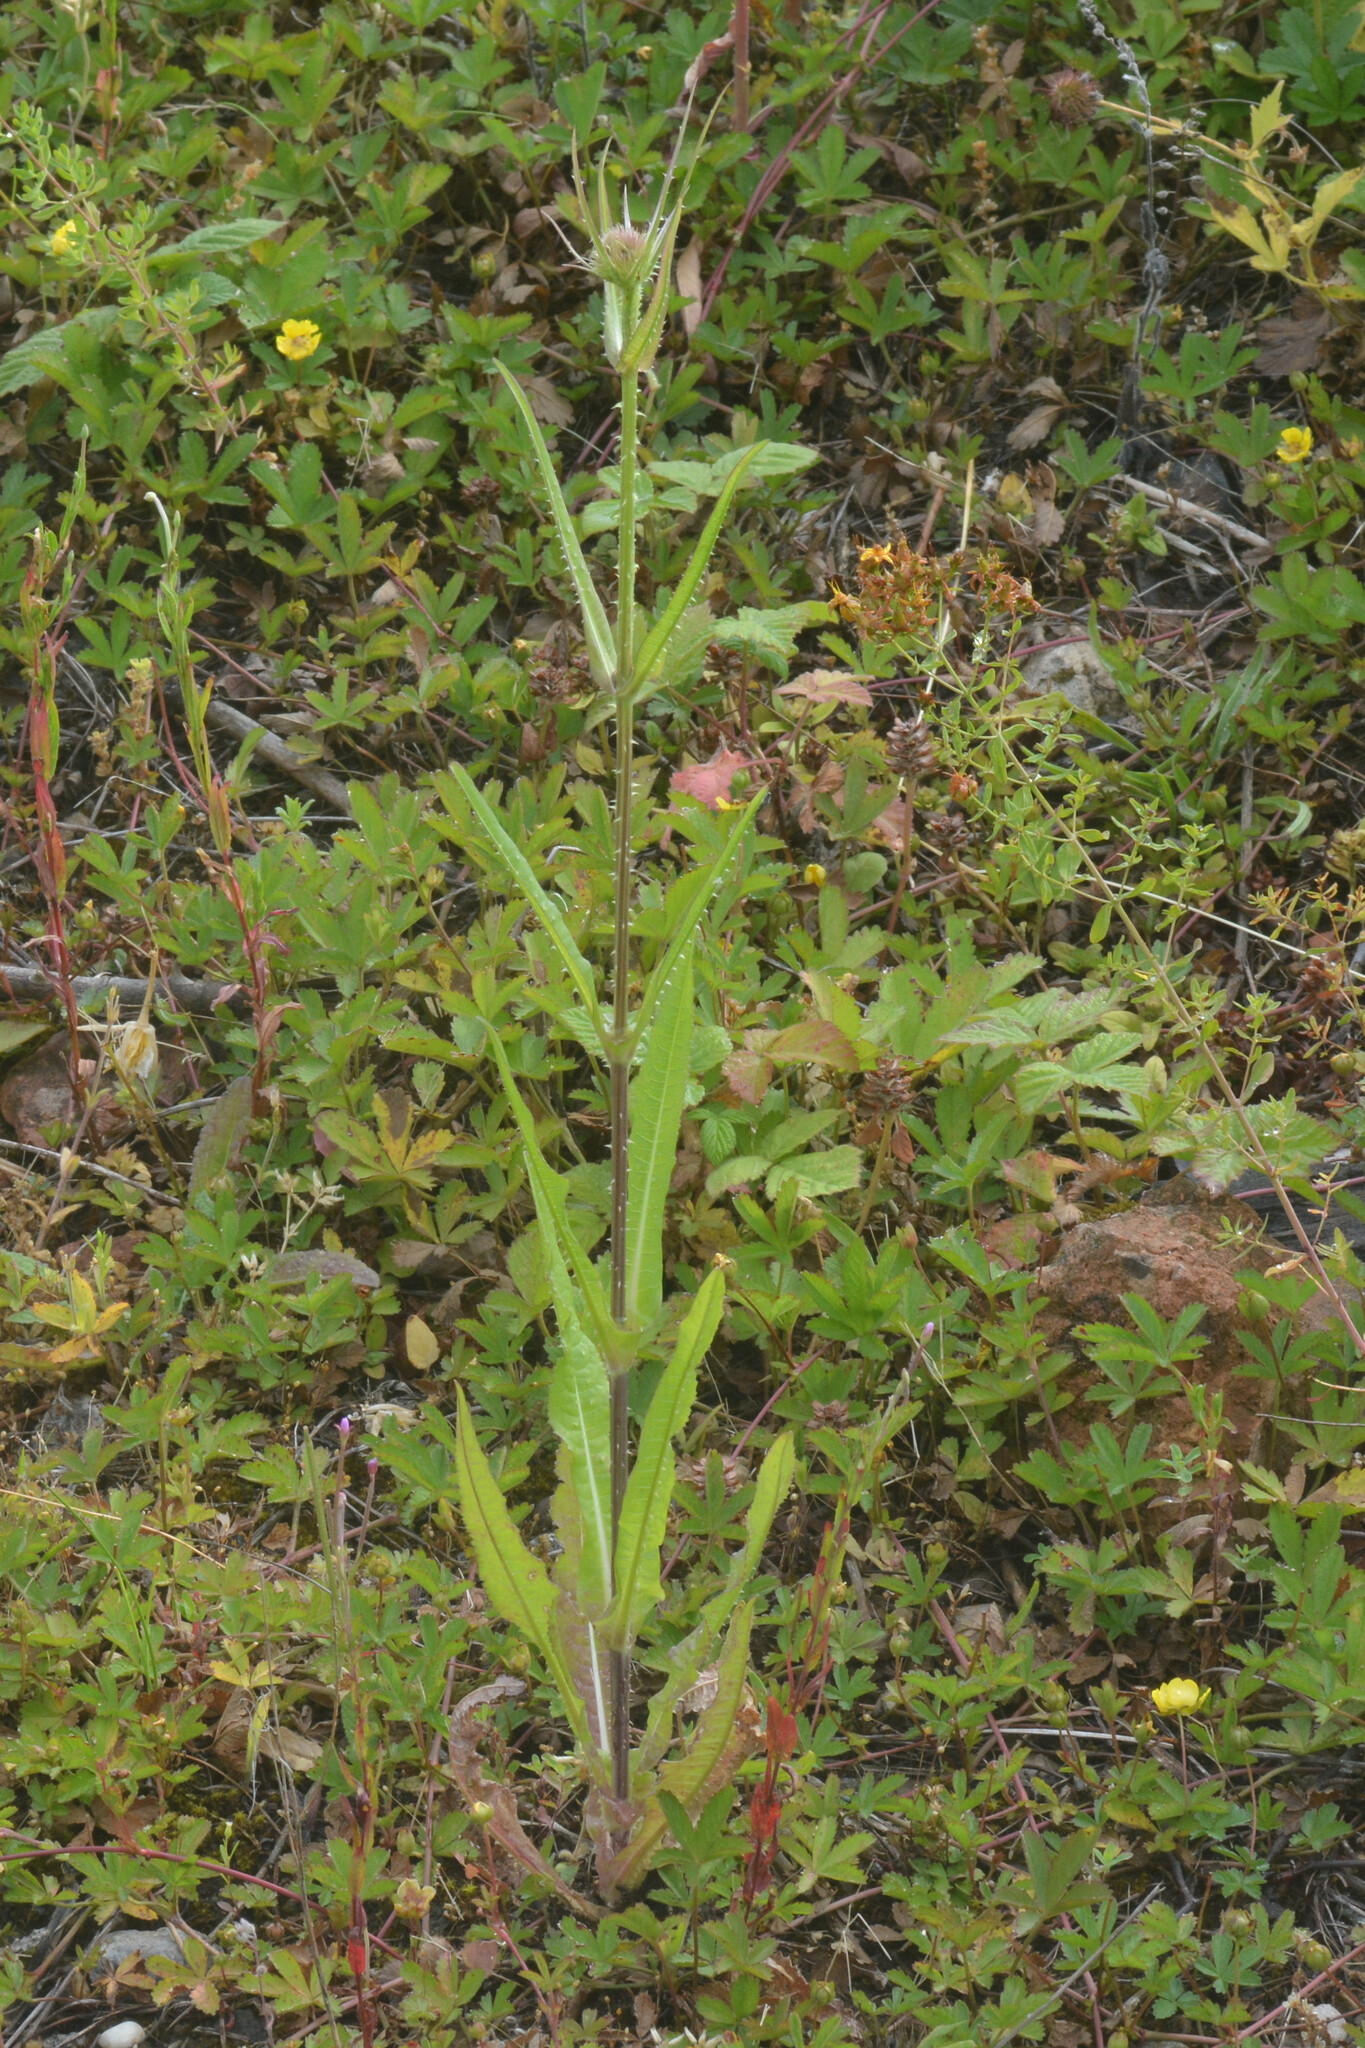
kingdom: Plantae
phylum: Tracheophyta
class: Magnoliopsida
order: Dipsacales
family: Caprifoliaceae
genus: Dipsacus
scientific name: Dipsacus fullonum
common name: Teasel
